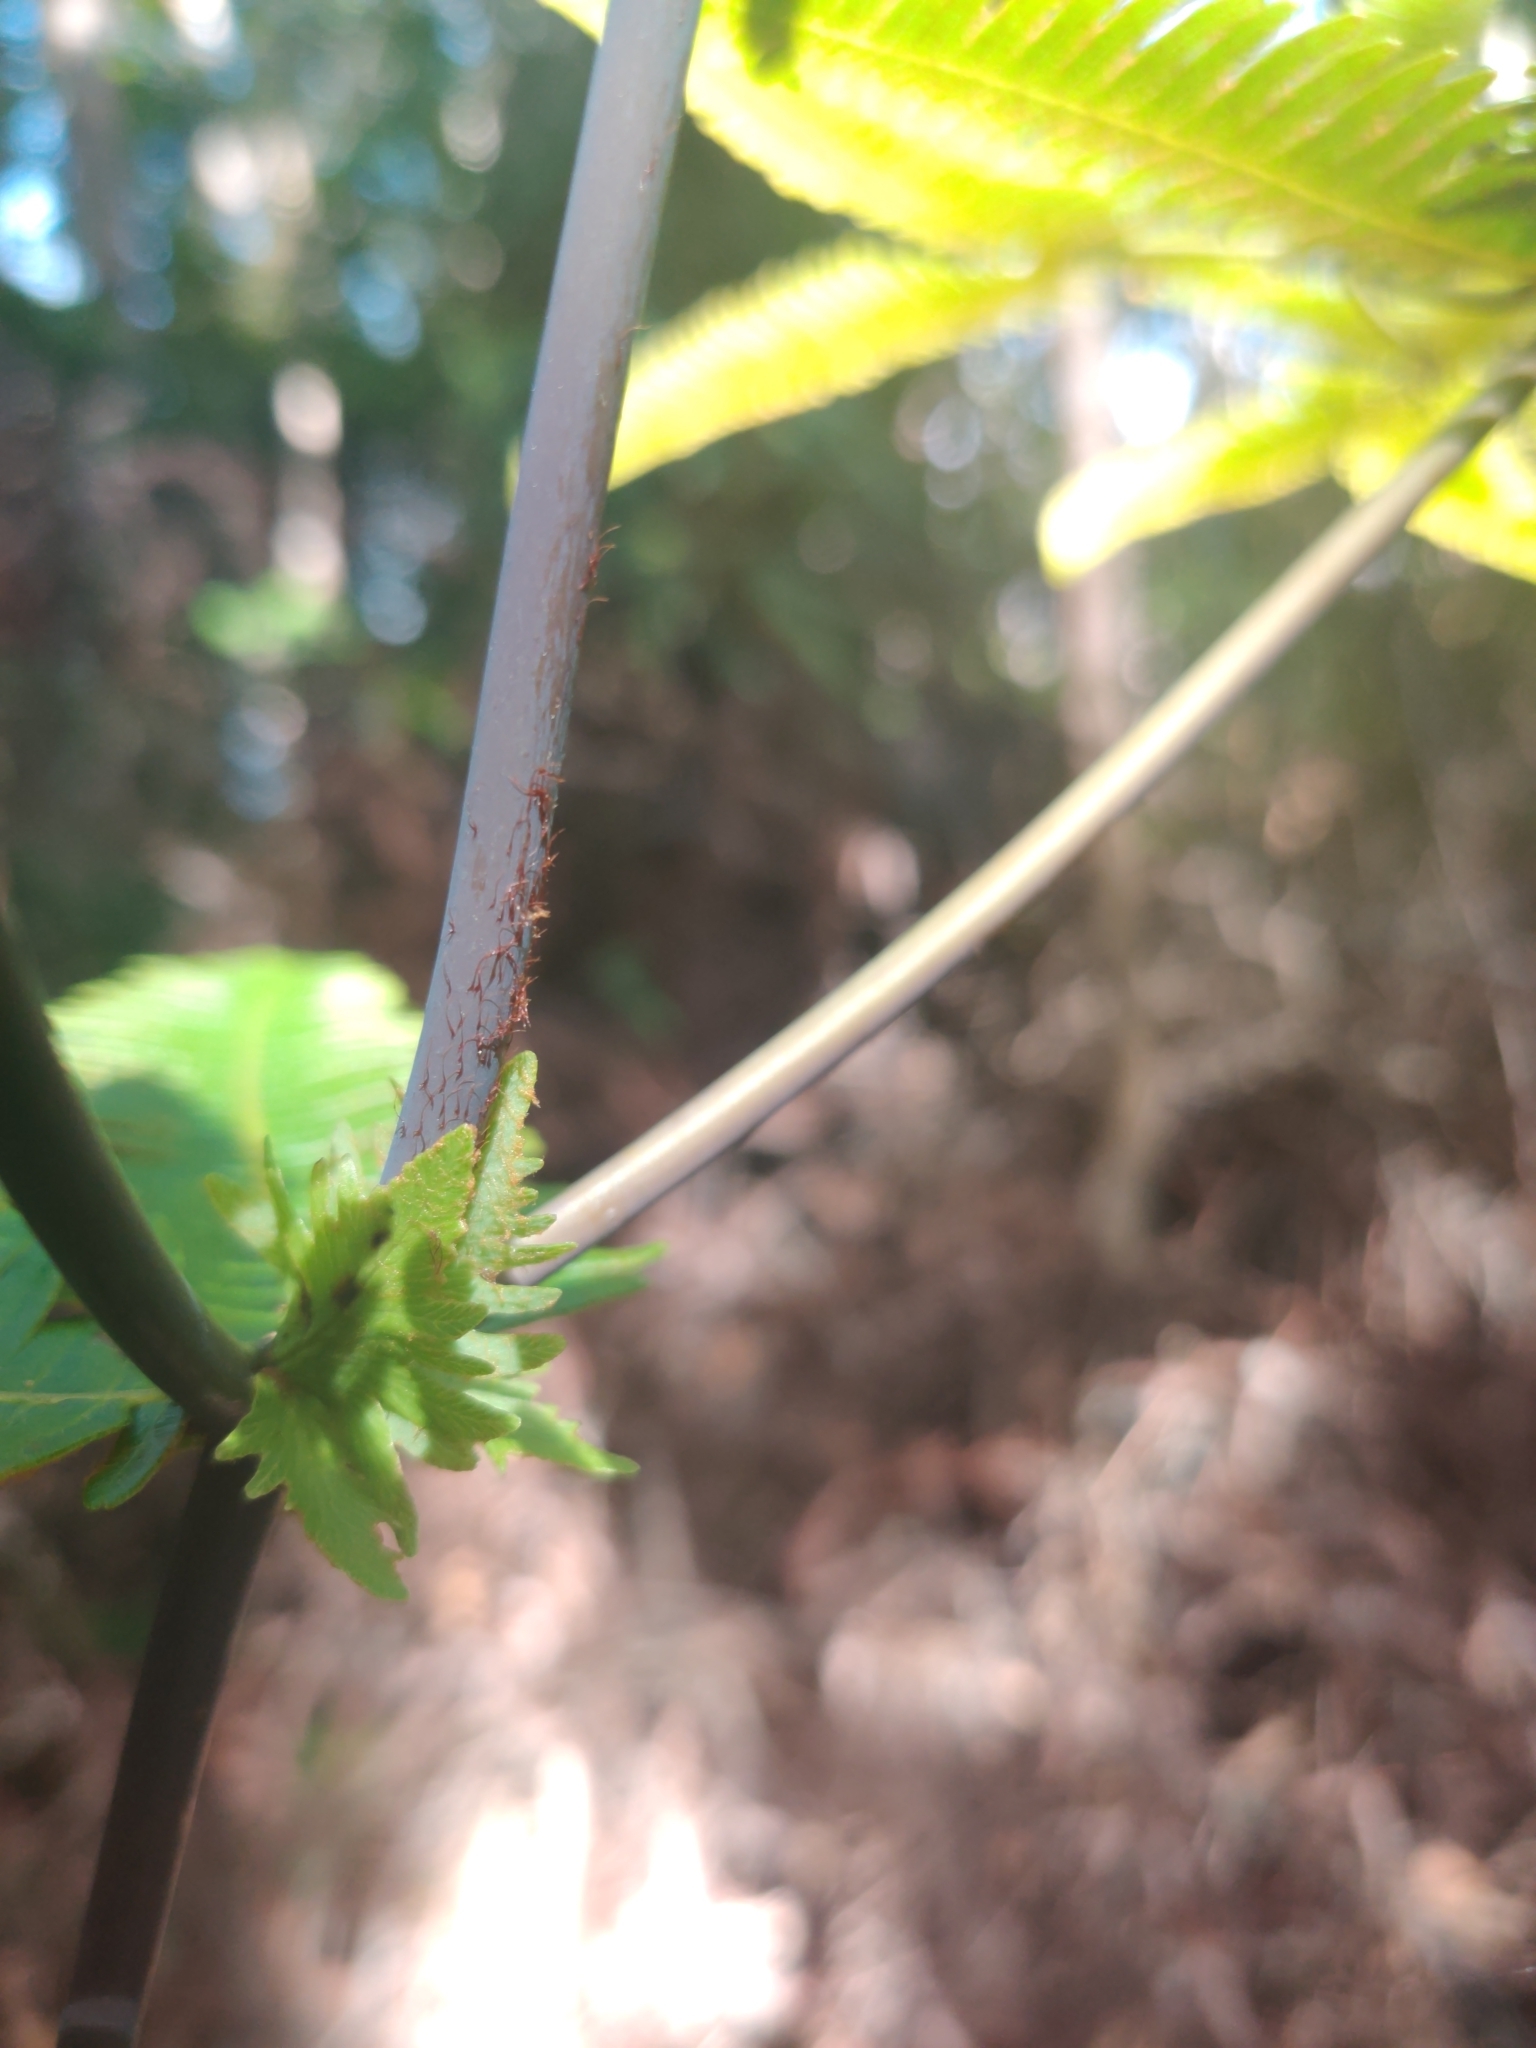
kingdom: Plantae
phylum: Tracheophyta
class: Polypodiopsida
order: Gleicheniales
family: Gleicheniaceae
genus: Dicranopteris
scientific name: Dicranopteris linearis
